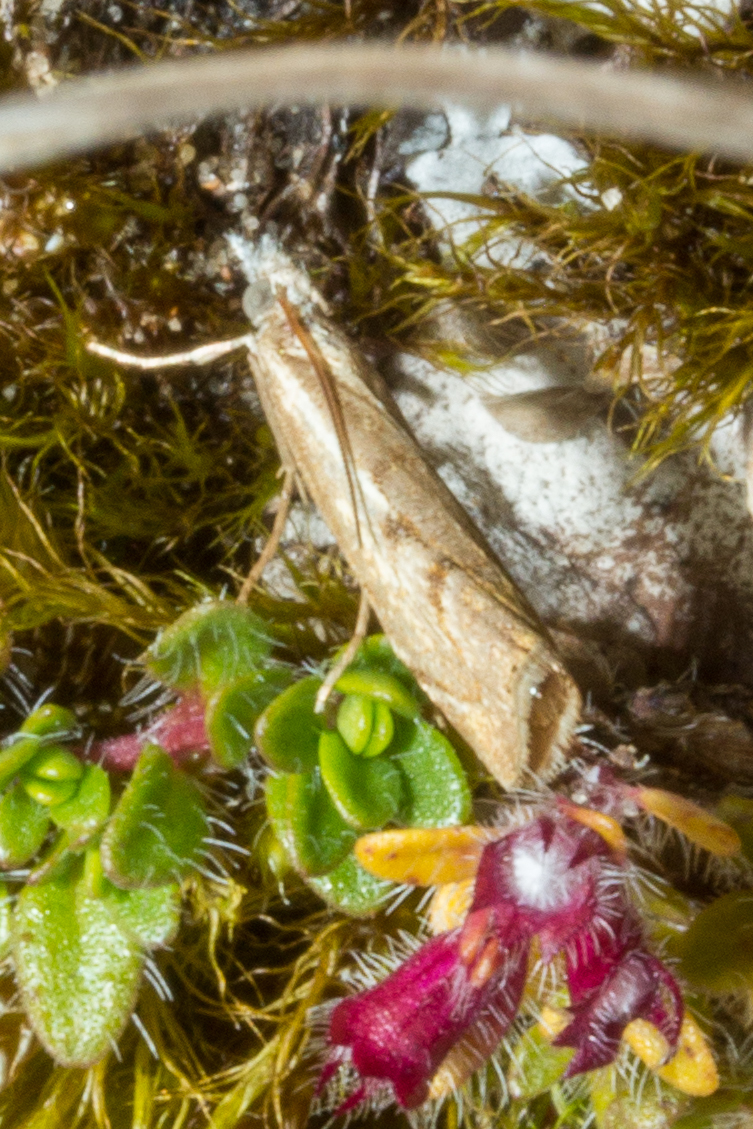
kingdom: Animalia
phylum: Arthropoda
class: Insecta
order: Lepidoptera
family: Crambidae
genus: Agriphila
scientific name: Agriphila geniculea
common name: Elbow-stripe grass-veneer
